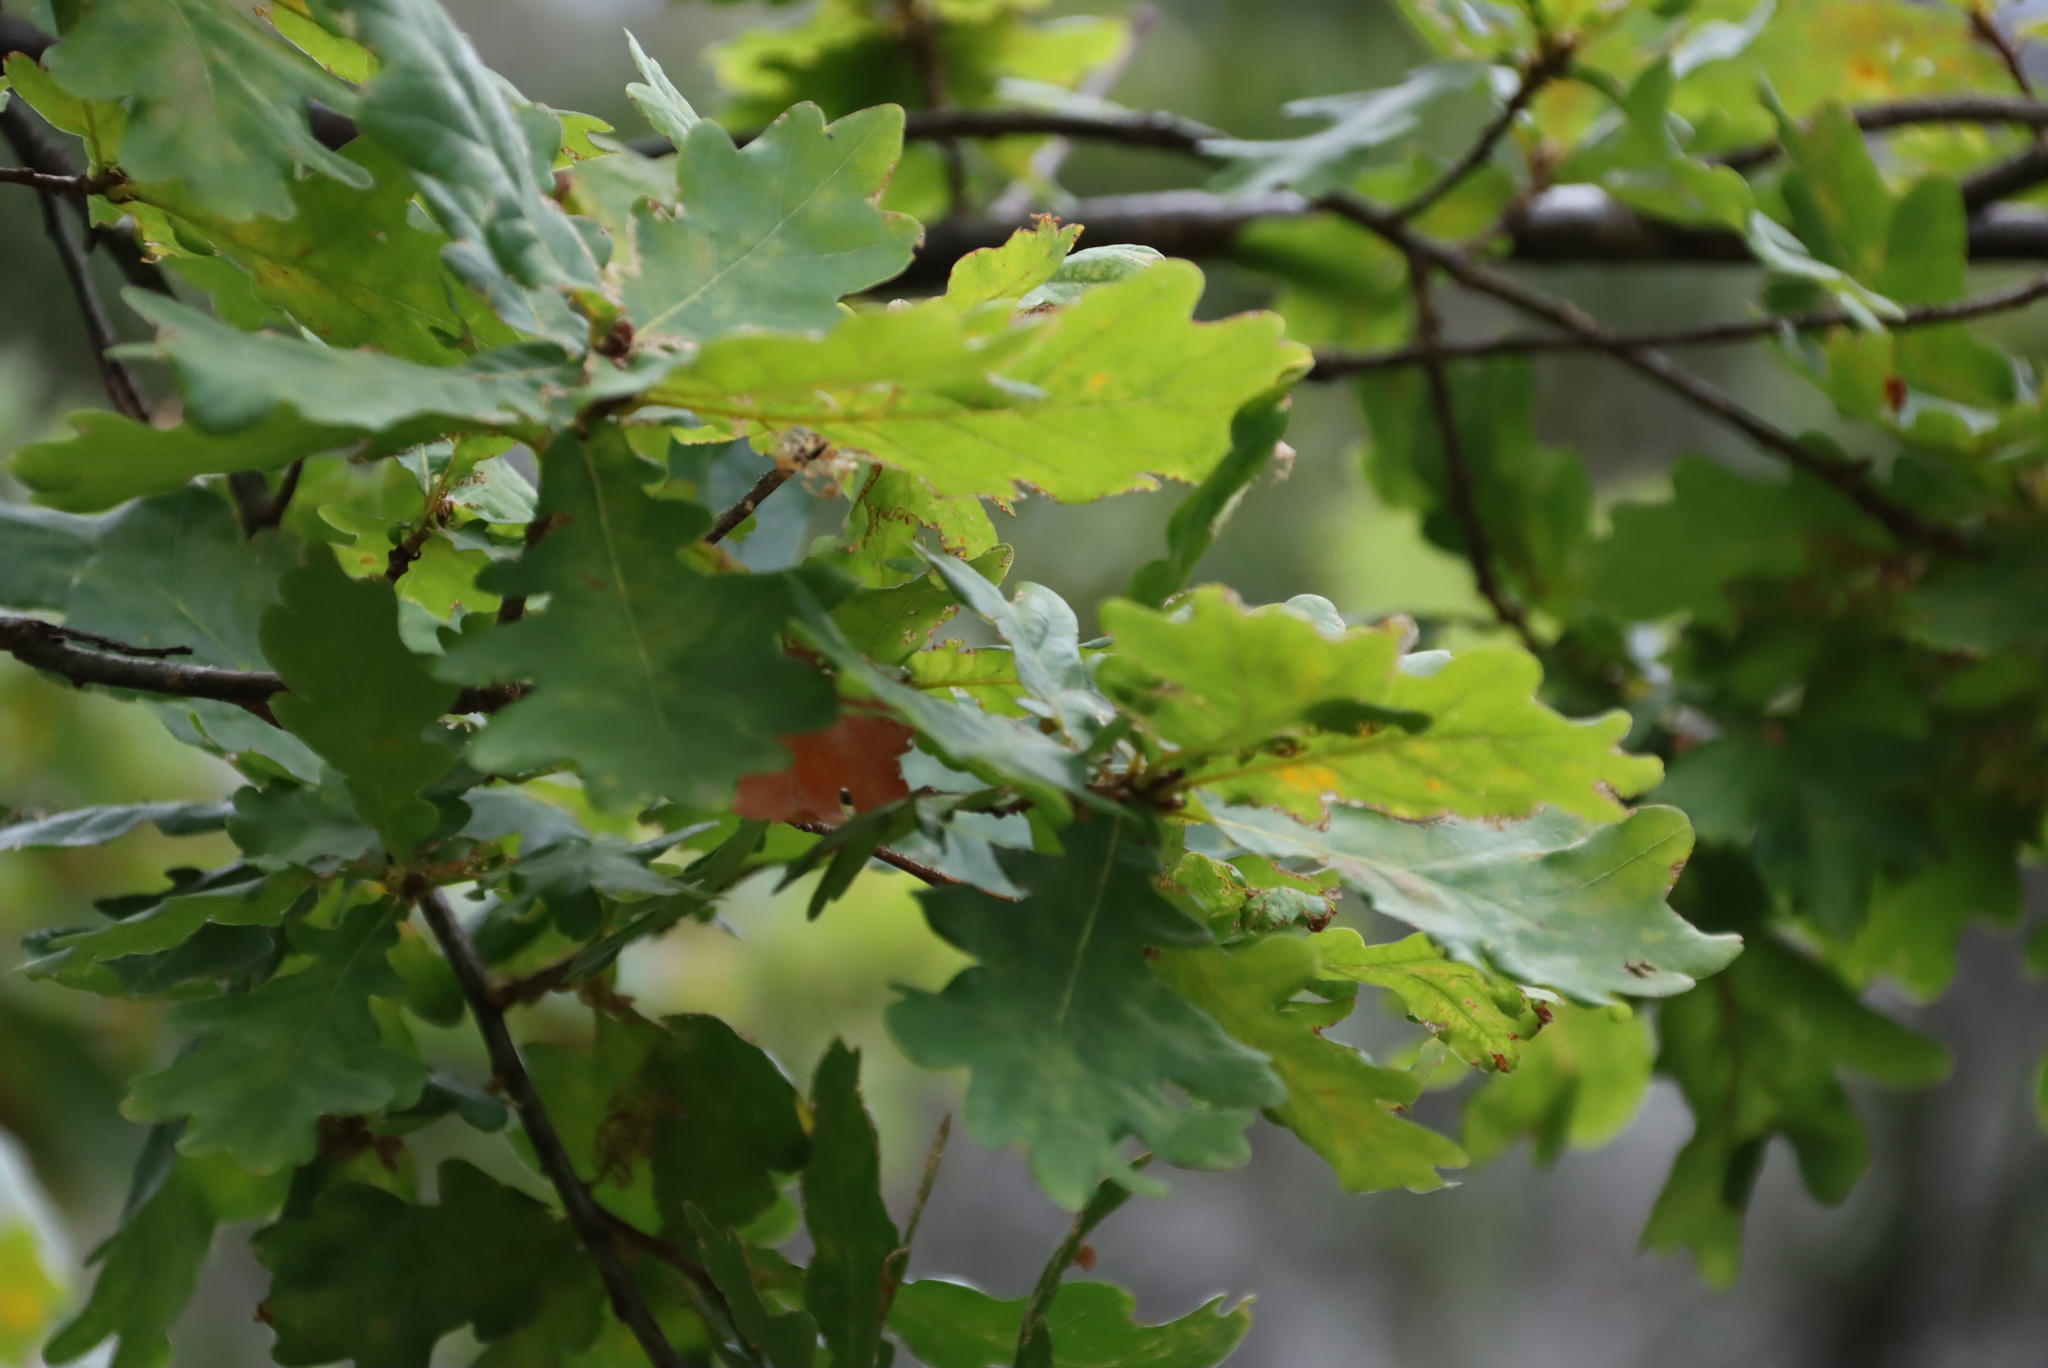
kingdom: Plantae
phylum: Tracheophyta
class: Magnoliopsida
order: Fagales
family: Fagaceae
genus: Quercus
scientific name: Quercus robur
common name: Pedunculate oak
